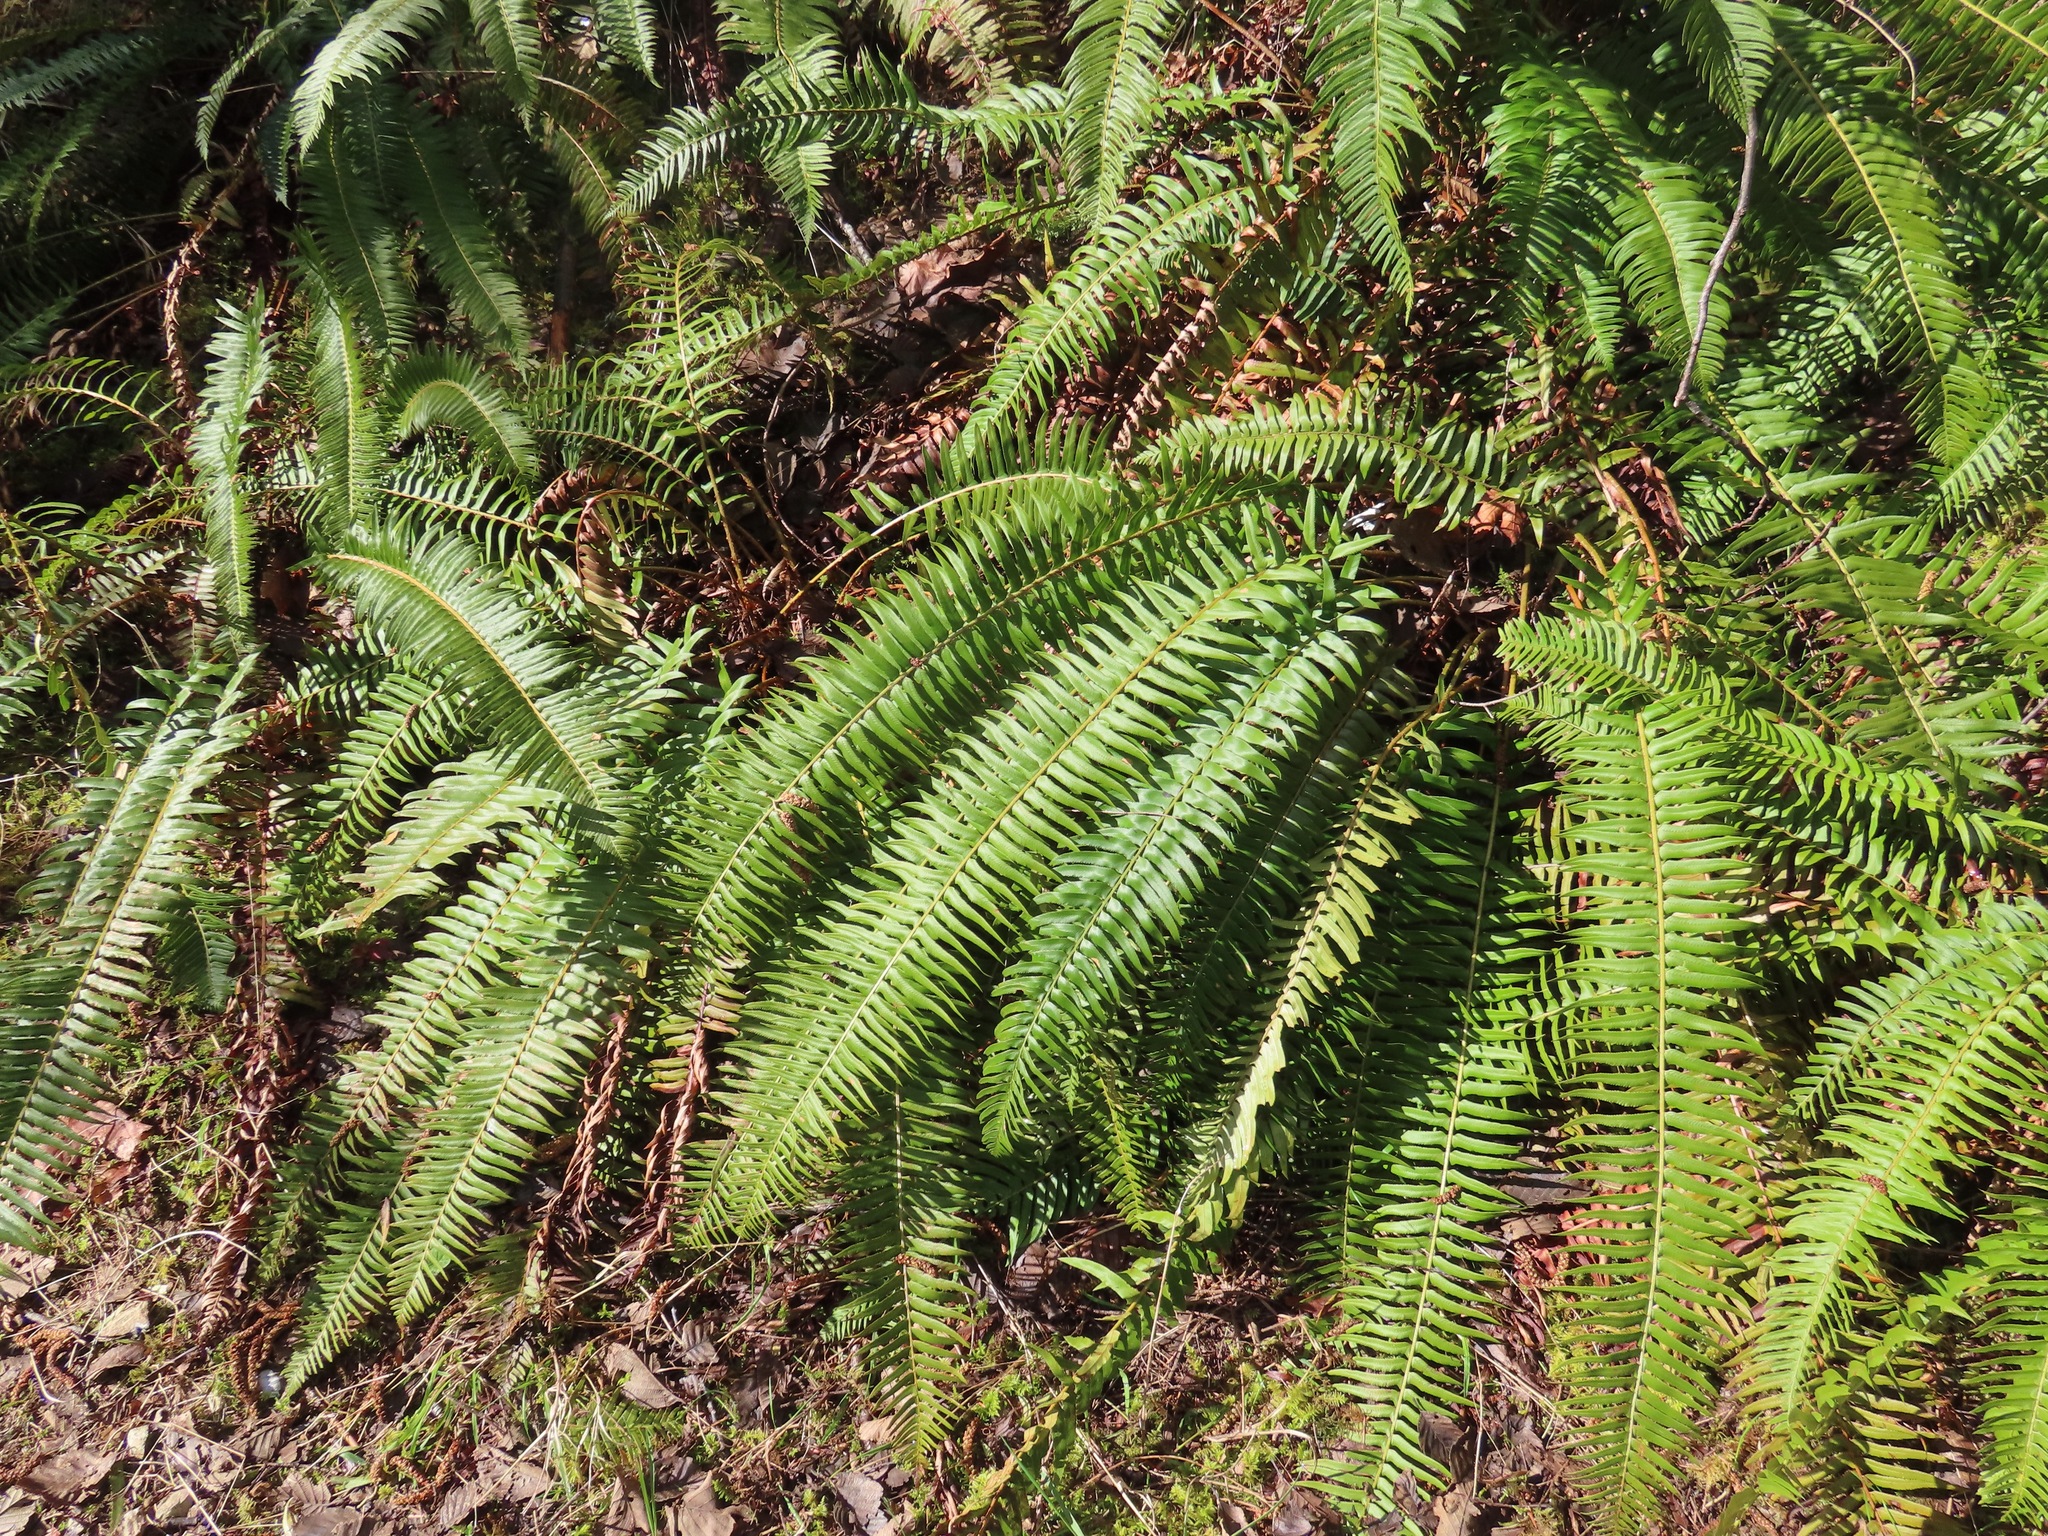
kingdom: Plantae
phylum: Tracheophyta
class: Polypodiopsida
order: Polypodiales
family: Dryopteridaceae
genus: Polystichum
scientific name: Polystichum munitum
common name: Western sword-fern
